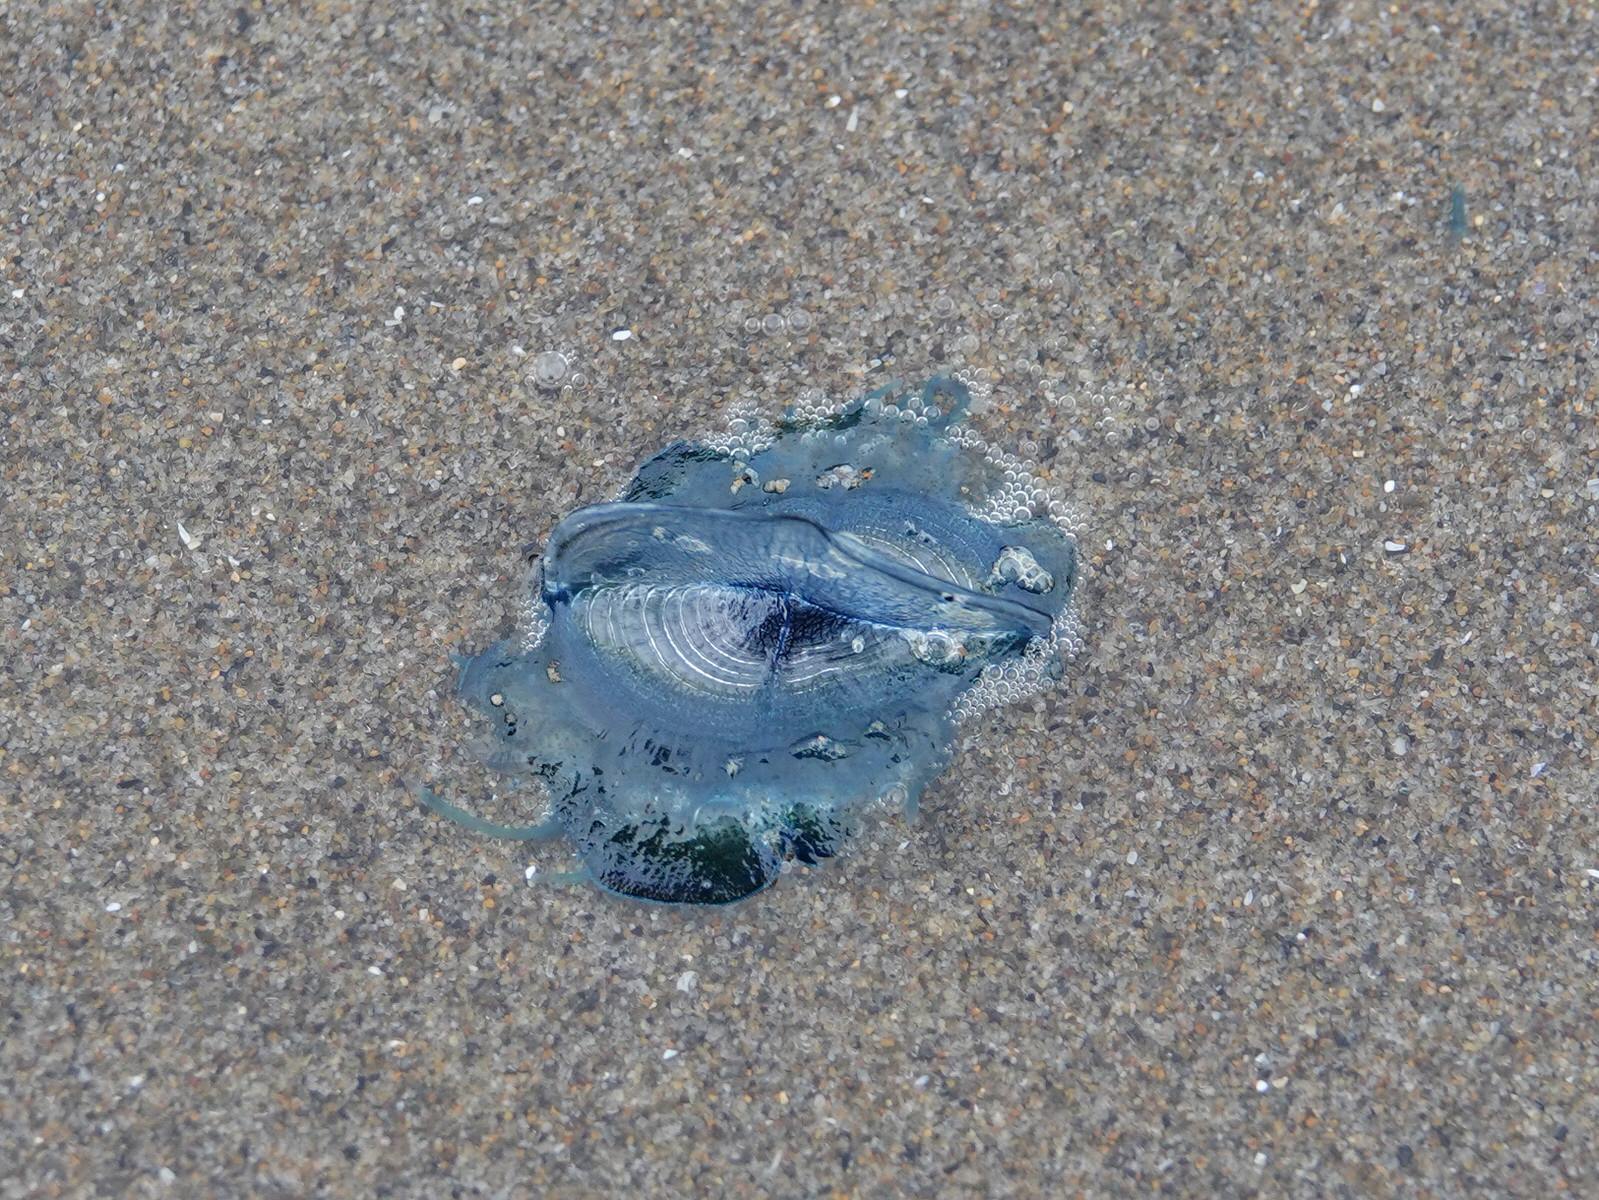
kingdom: Animalia
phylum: Cnidaria
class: Hydrozoa
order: Anthoathecata
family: Porpitidae
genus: Velella
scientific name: Velella velella
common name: By-the-wind-sailor
